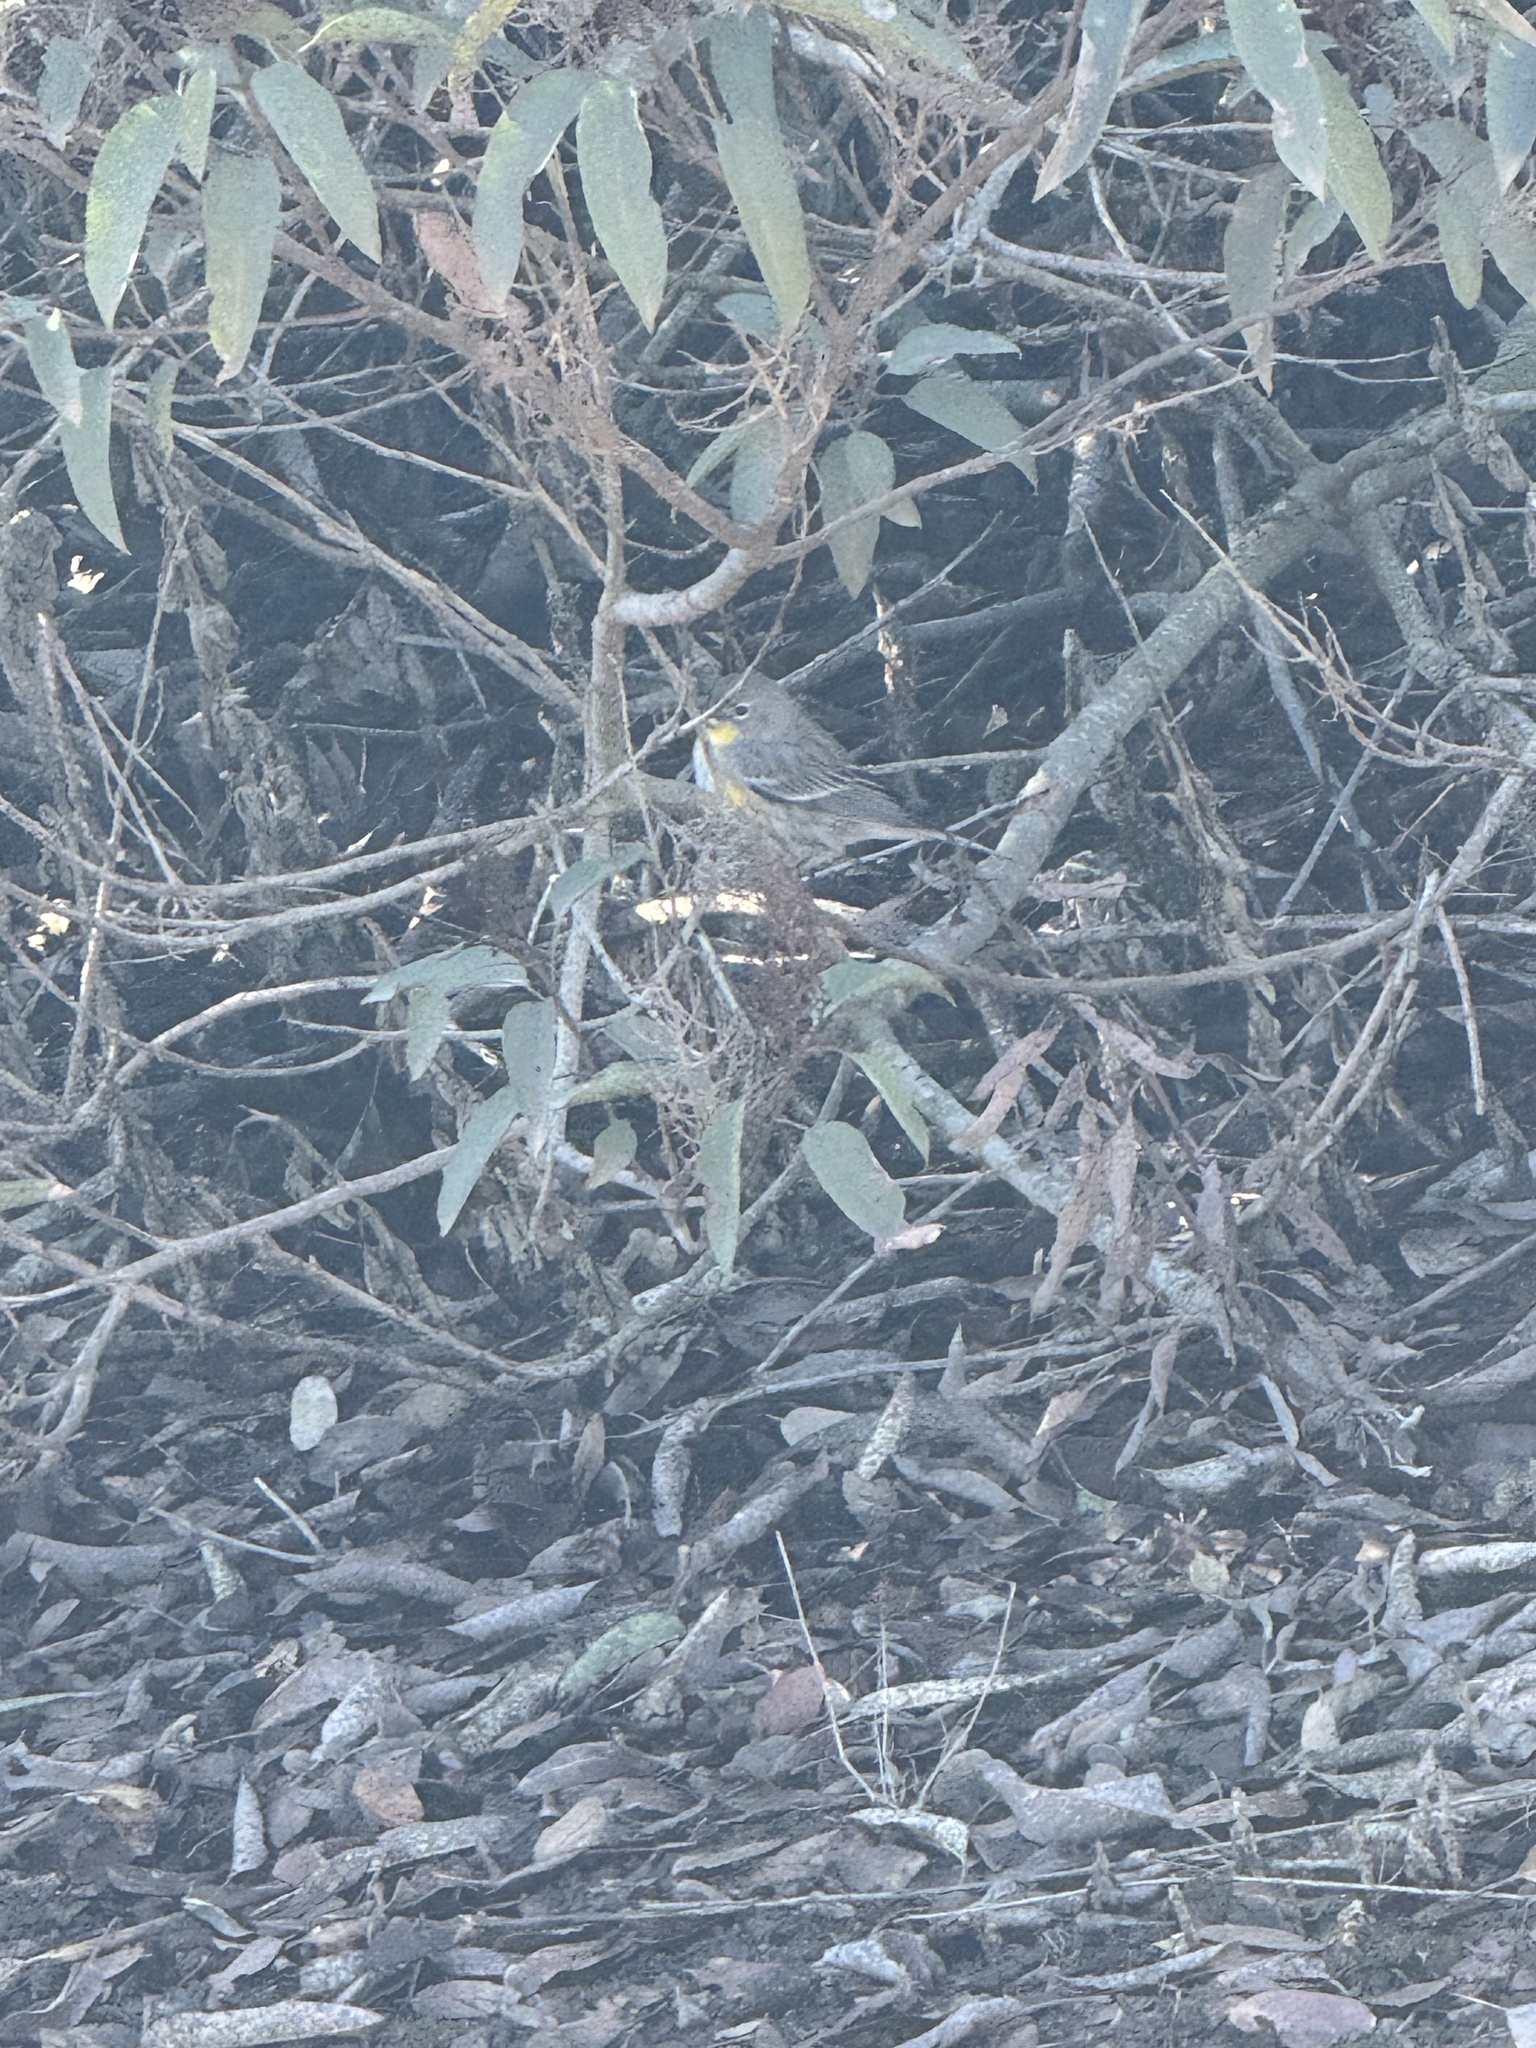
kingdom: Animalia
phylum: Chordata
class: Aves
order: Passeriformes
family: Parulidae
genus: Setophaga
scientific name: Setophaga coronata
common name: Myrtle warbler
